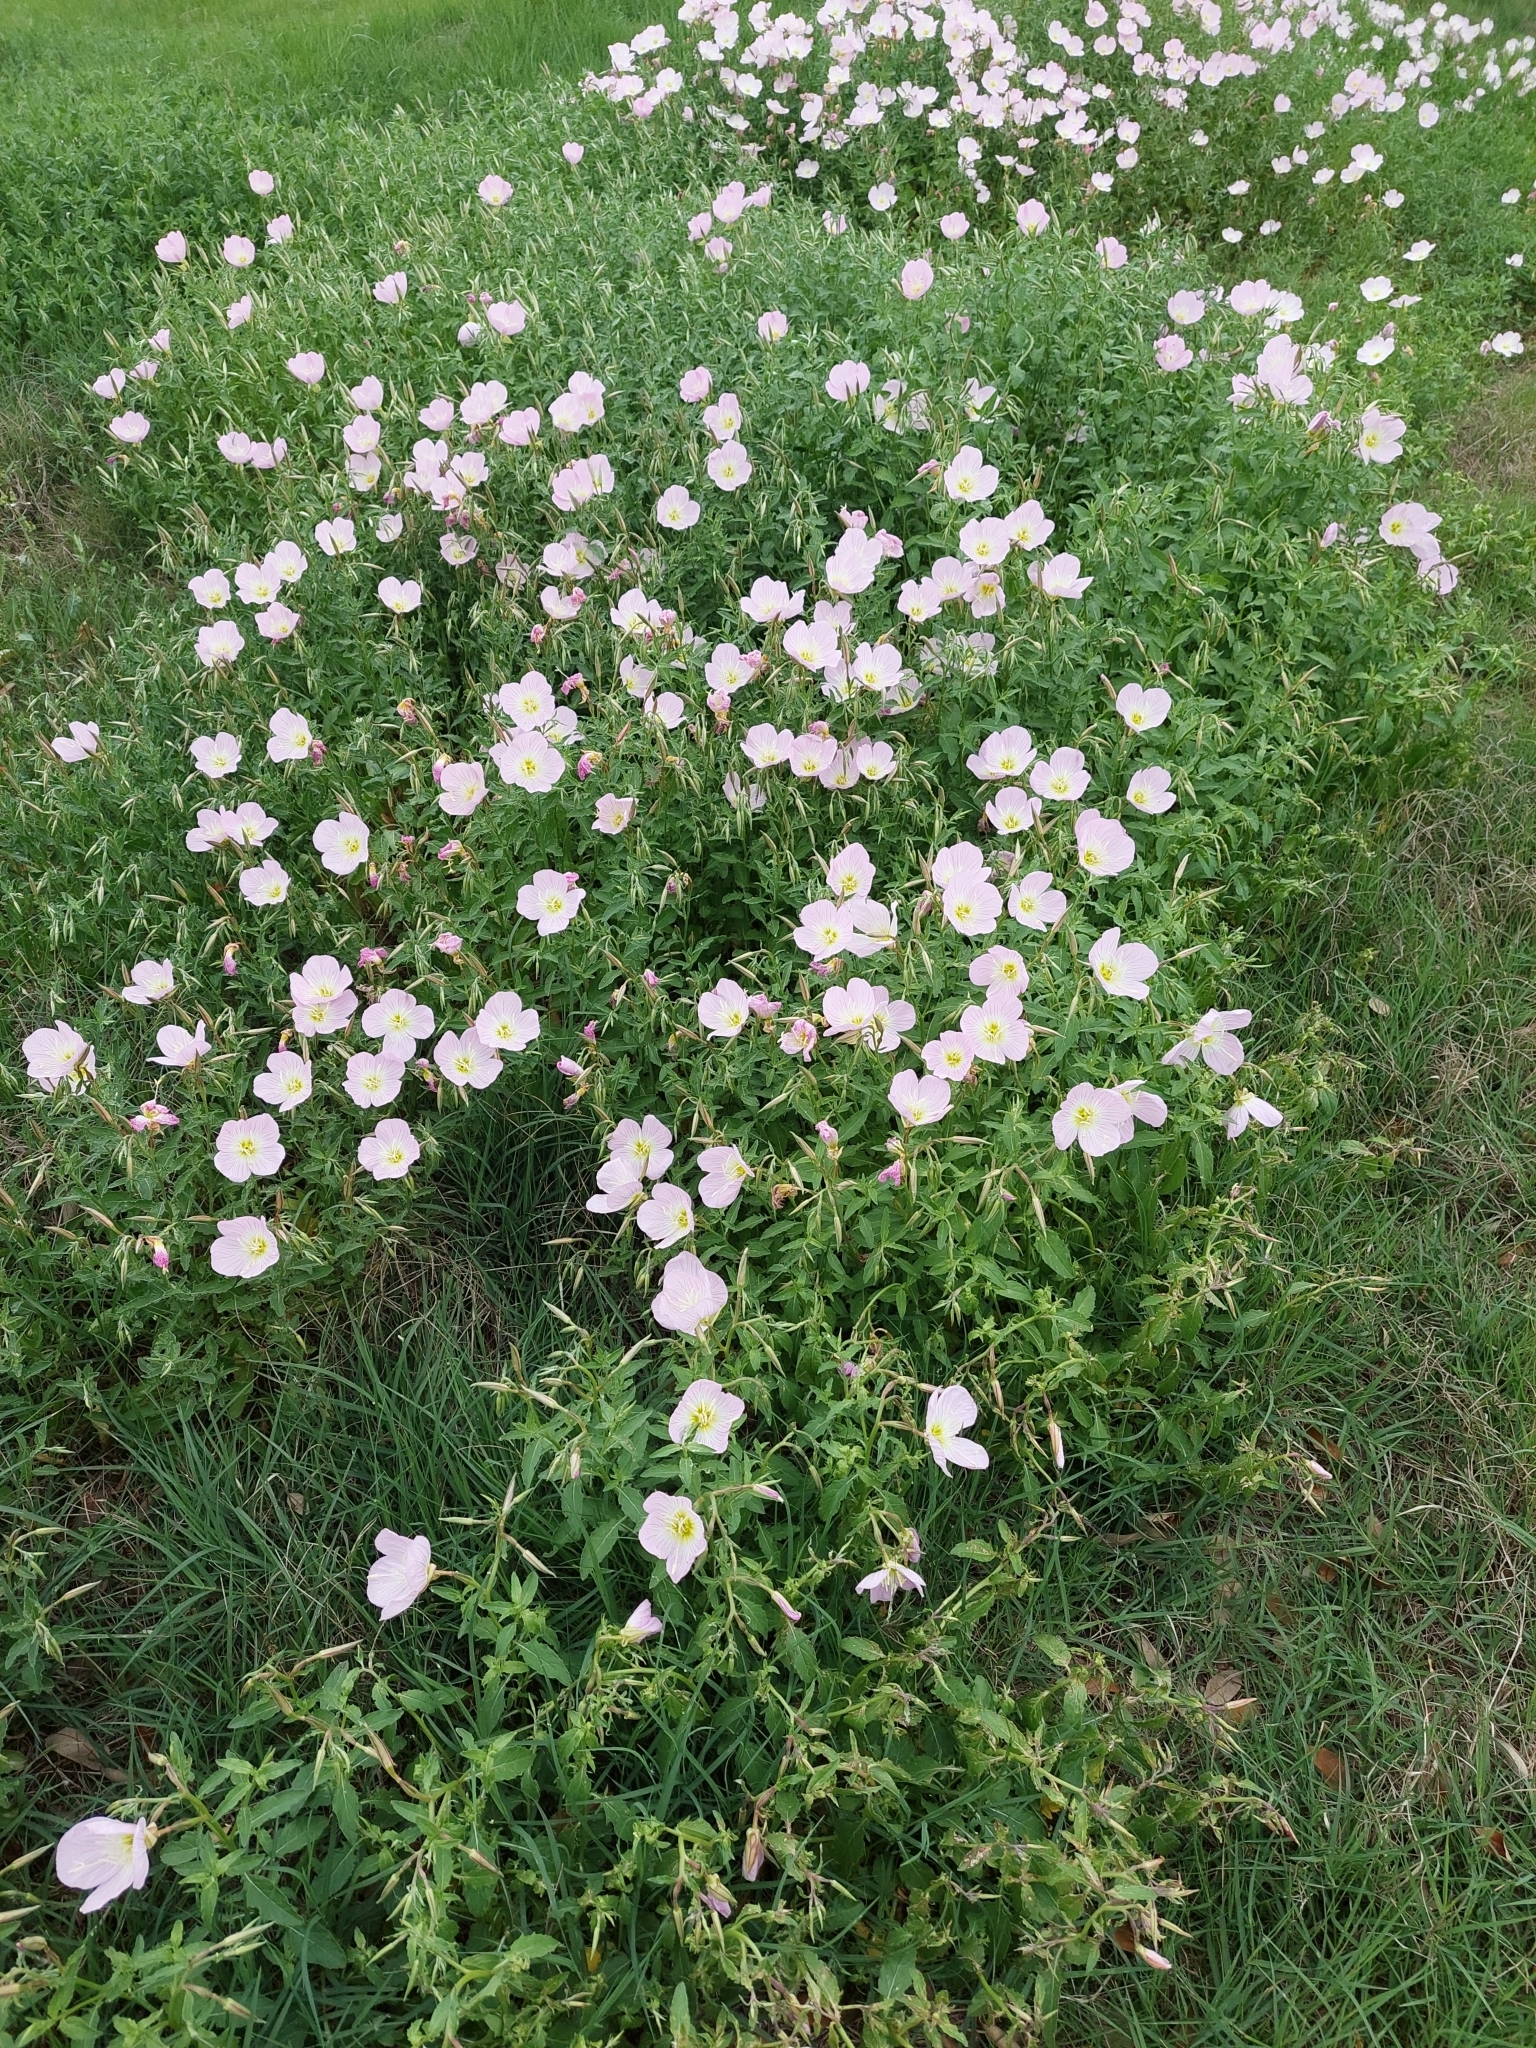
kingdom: Plantae
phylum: Tracheophyta
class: Magnoliopsida
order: Myrtales
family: Onagraceae
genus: Oenothera
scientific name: Oenothera speciosa
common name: White evening-primrose
